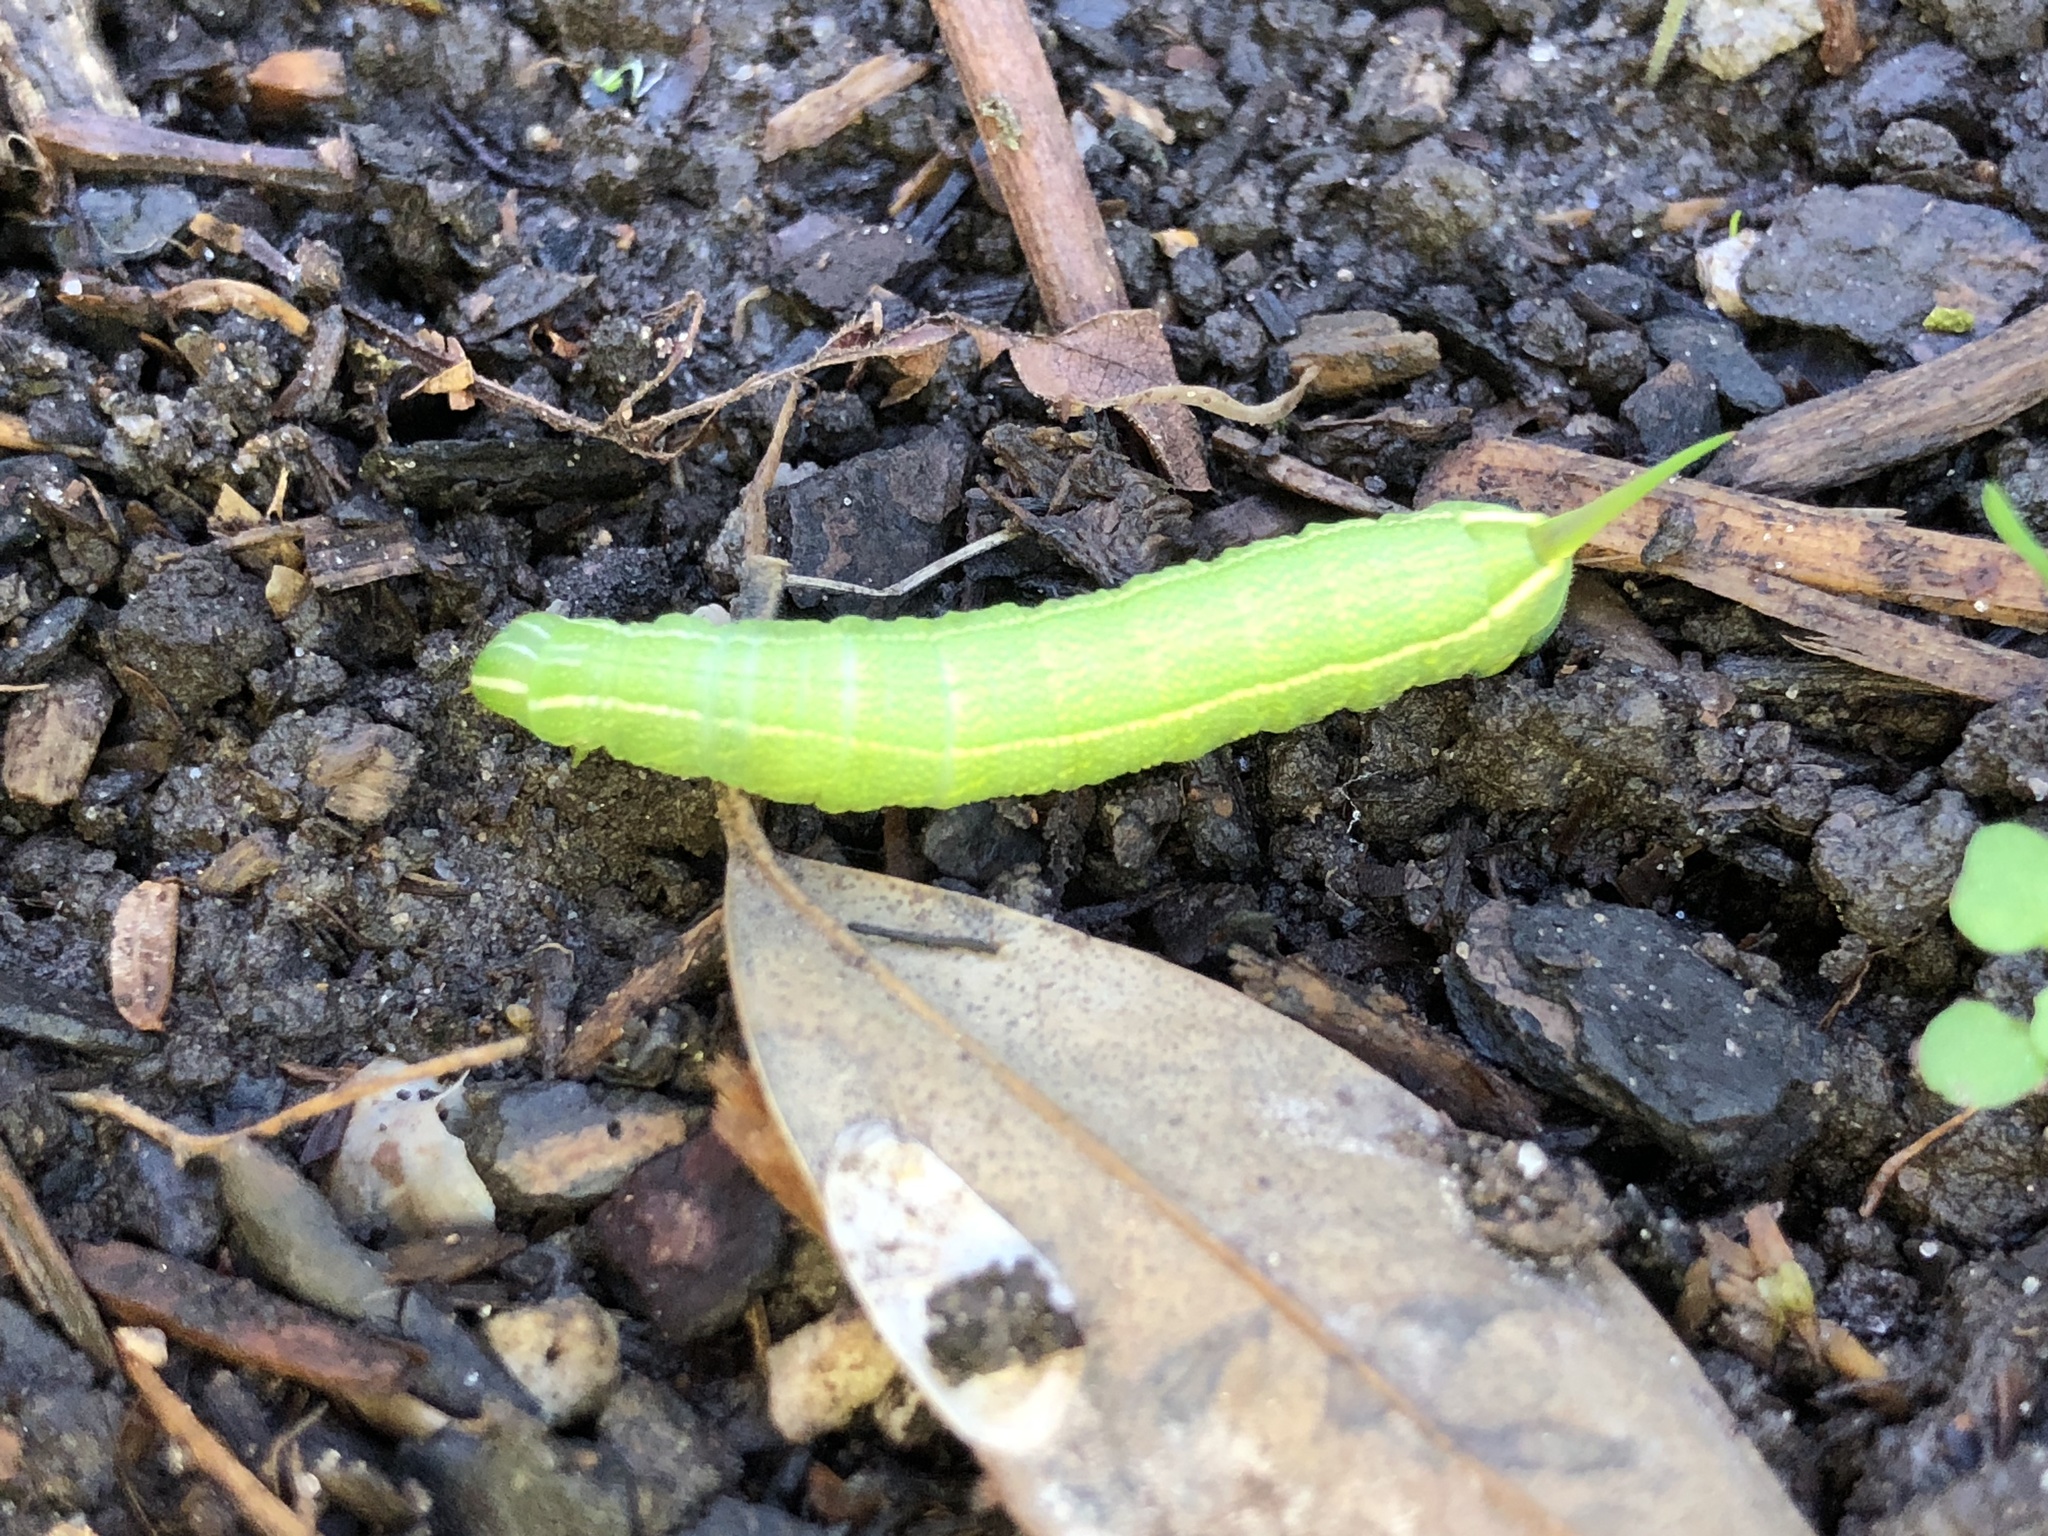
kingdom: Animalia
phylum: Arthropoda
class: Insecta
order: Lepidoptera
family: Sphingidae
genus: Enyo
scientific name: Enyo lugubris
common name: Mournful sphinx
